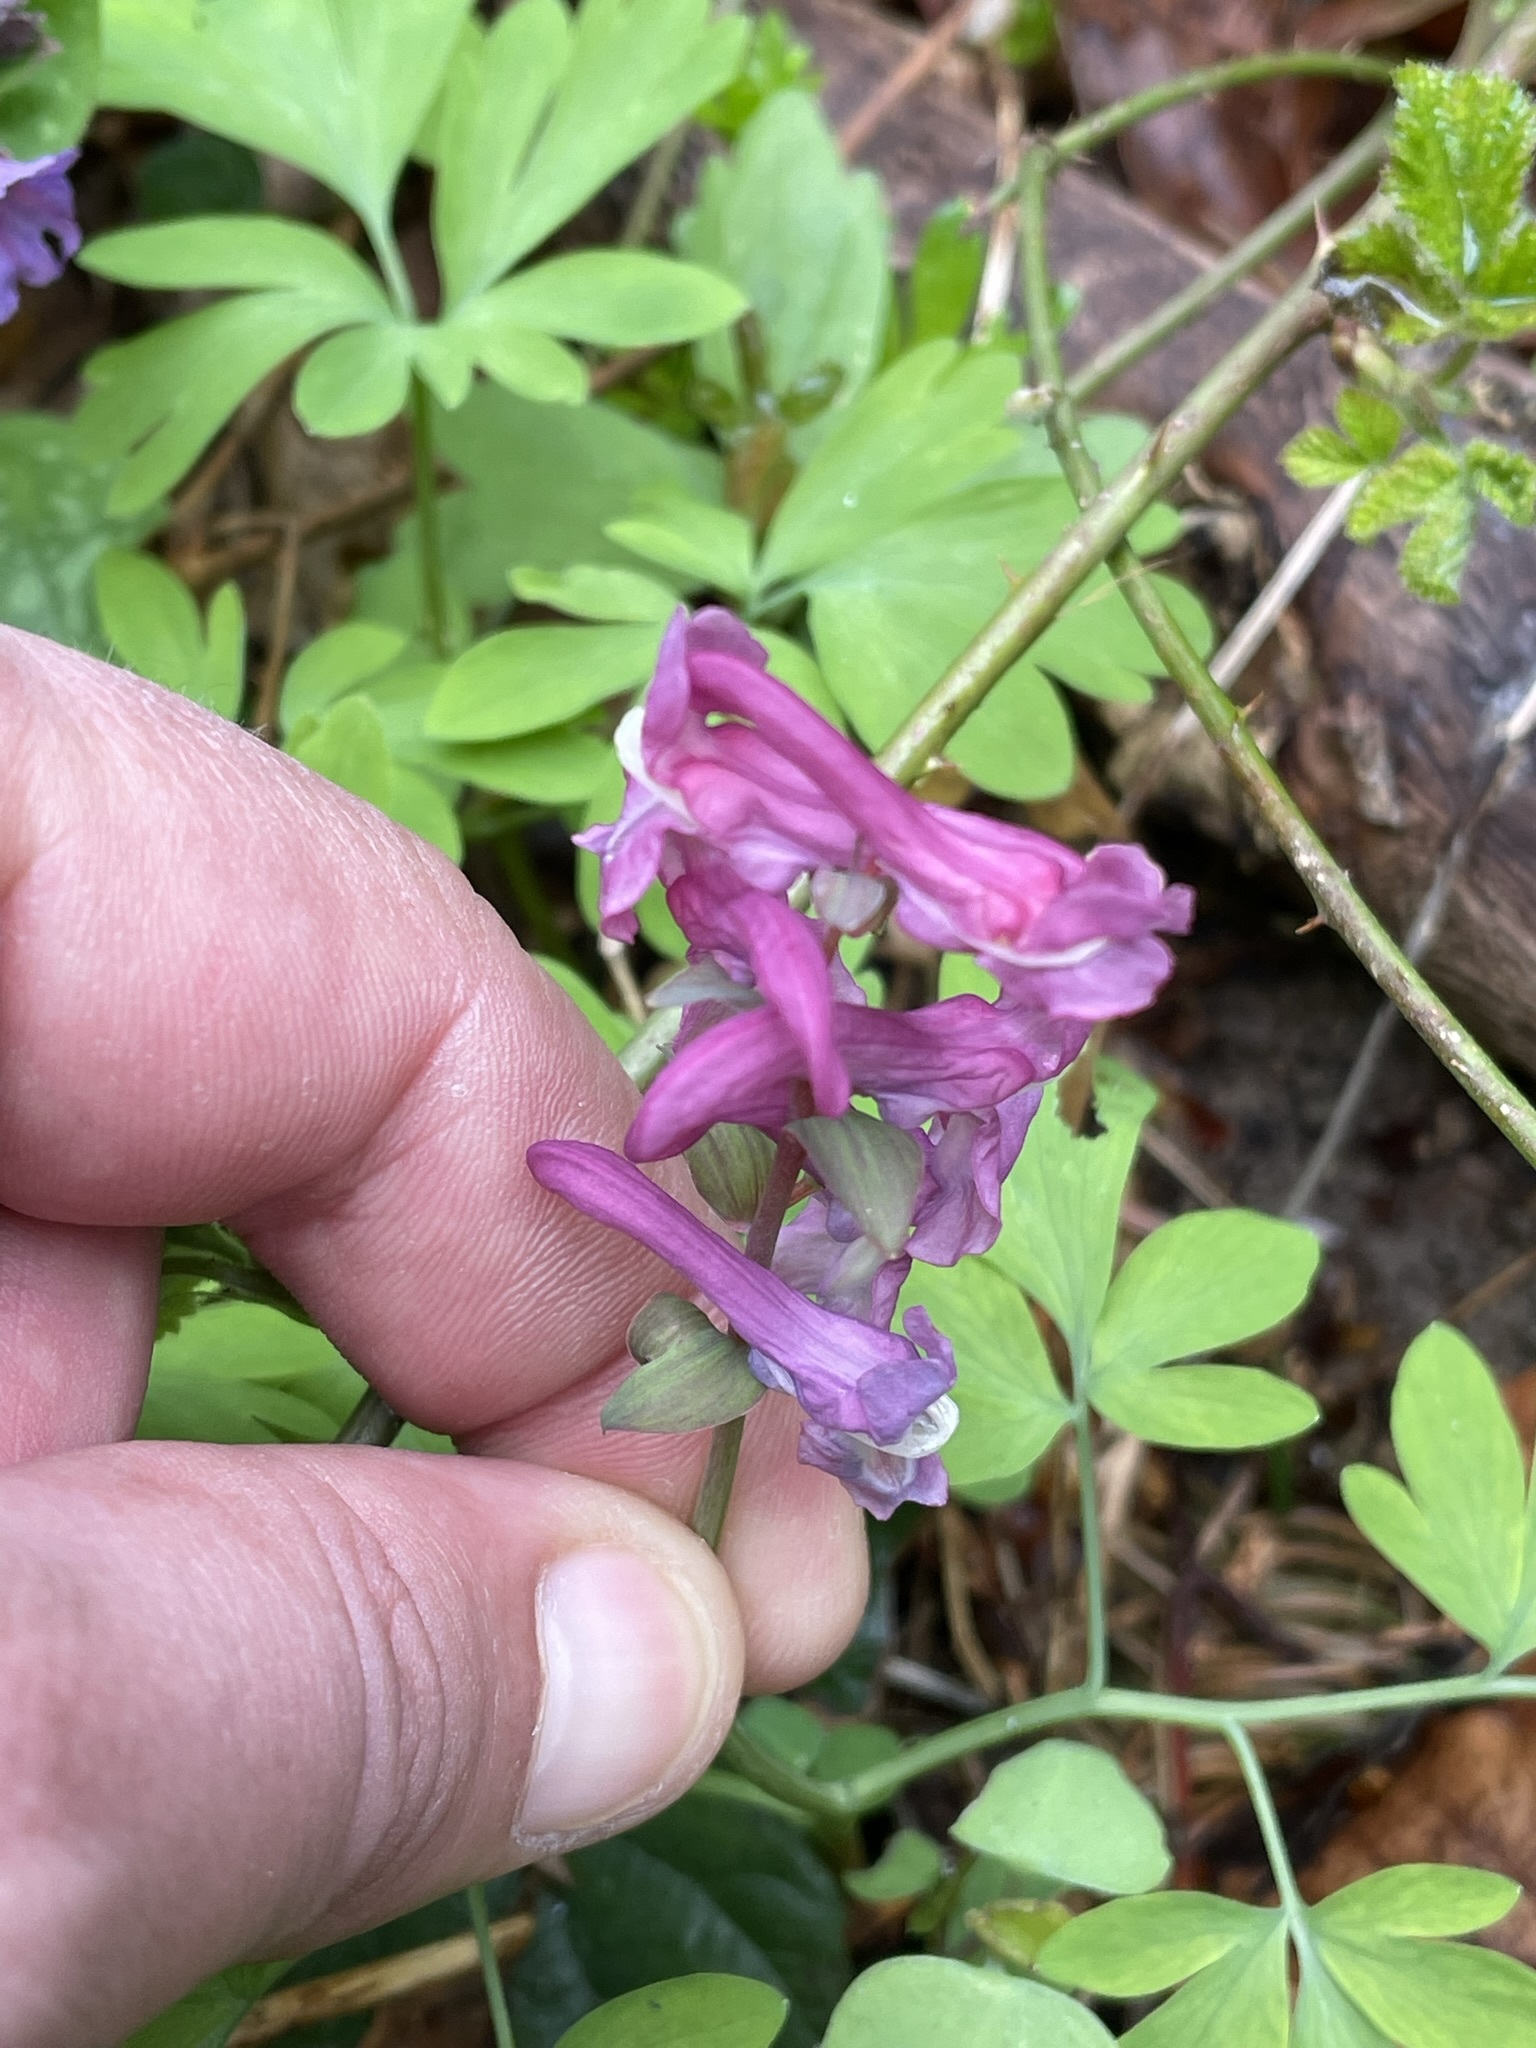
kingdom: Plantae
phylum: Tracheophyta
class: Magnoliopsida
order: Ranunculales
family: Papaveraceae
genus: Corydalis
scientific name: Corydalis cava
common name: Hollowroot
